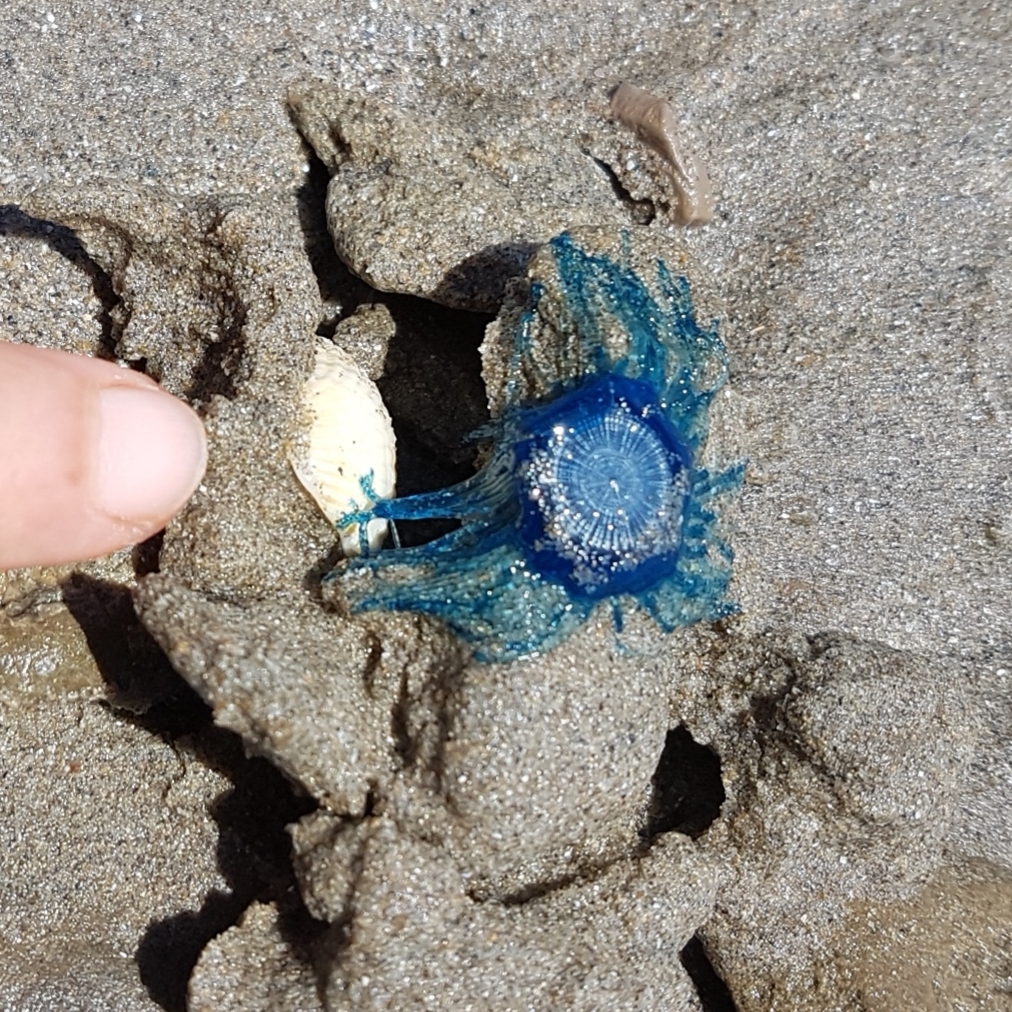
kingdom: Animalia
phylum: Cnidaria
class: Hydrozoa
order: Anthoathecata
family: Porpitidae
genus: Porpita
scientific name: Porpita porpita
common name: Blue button
